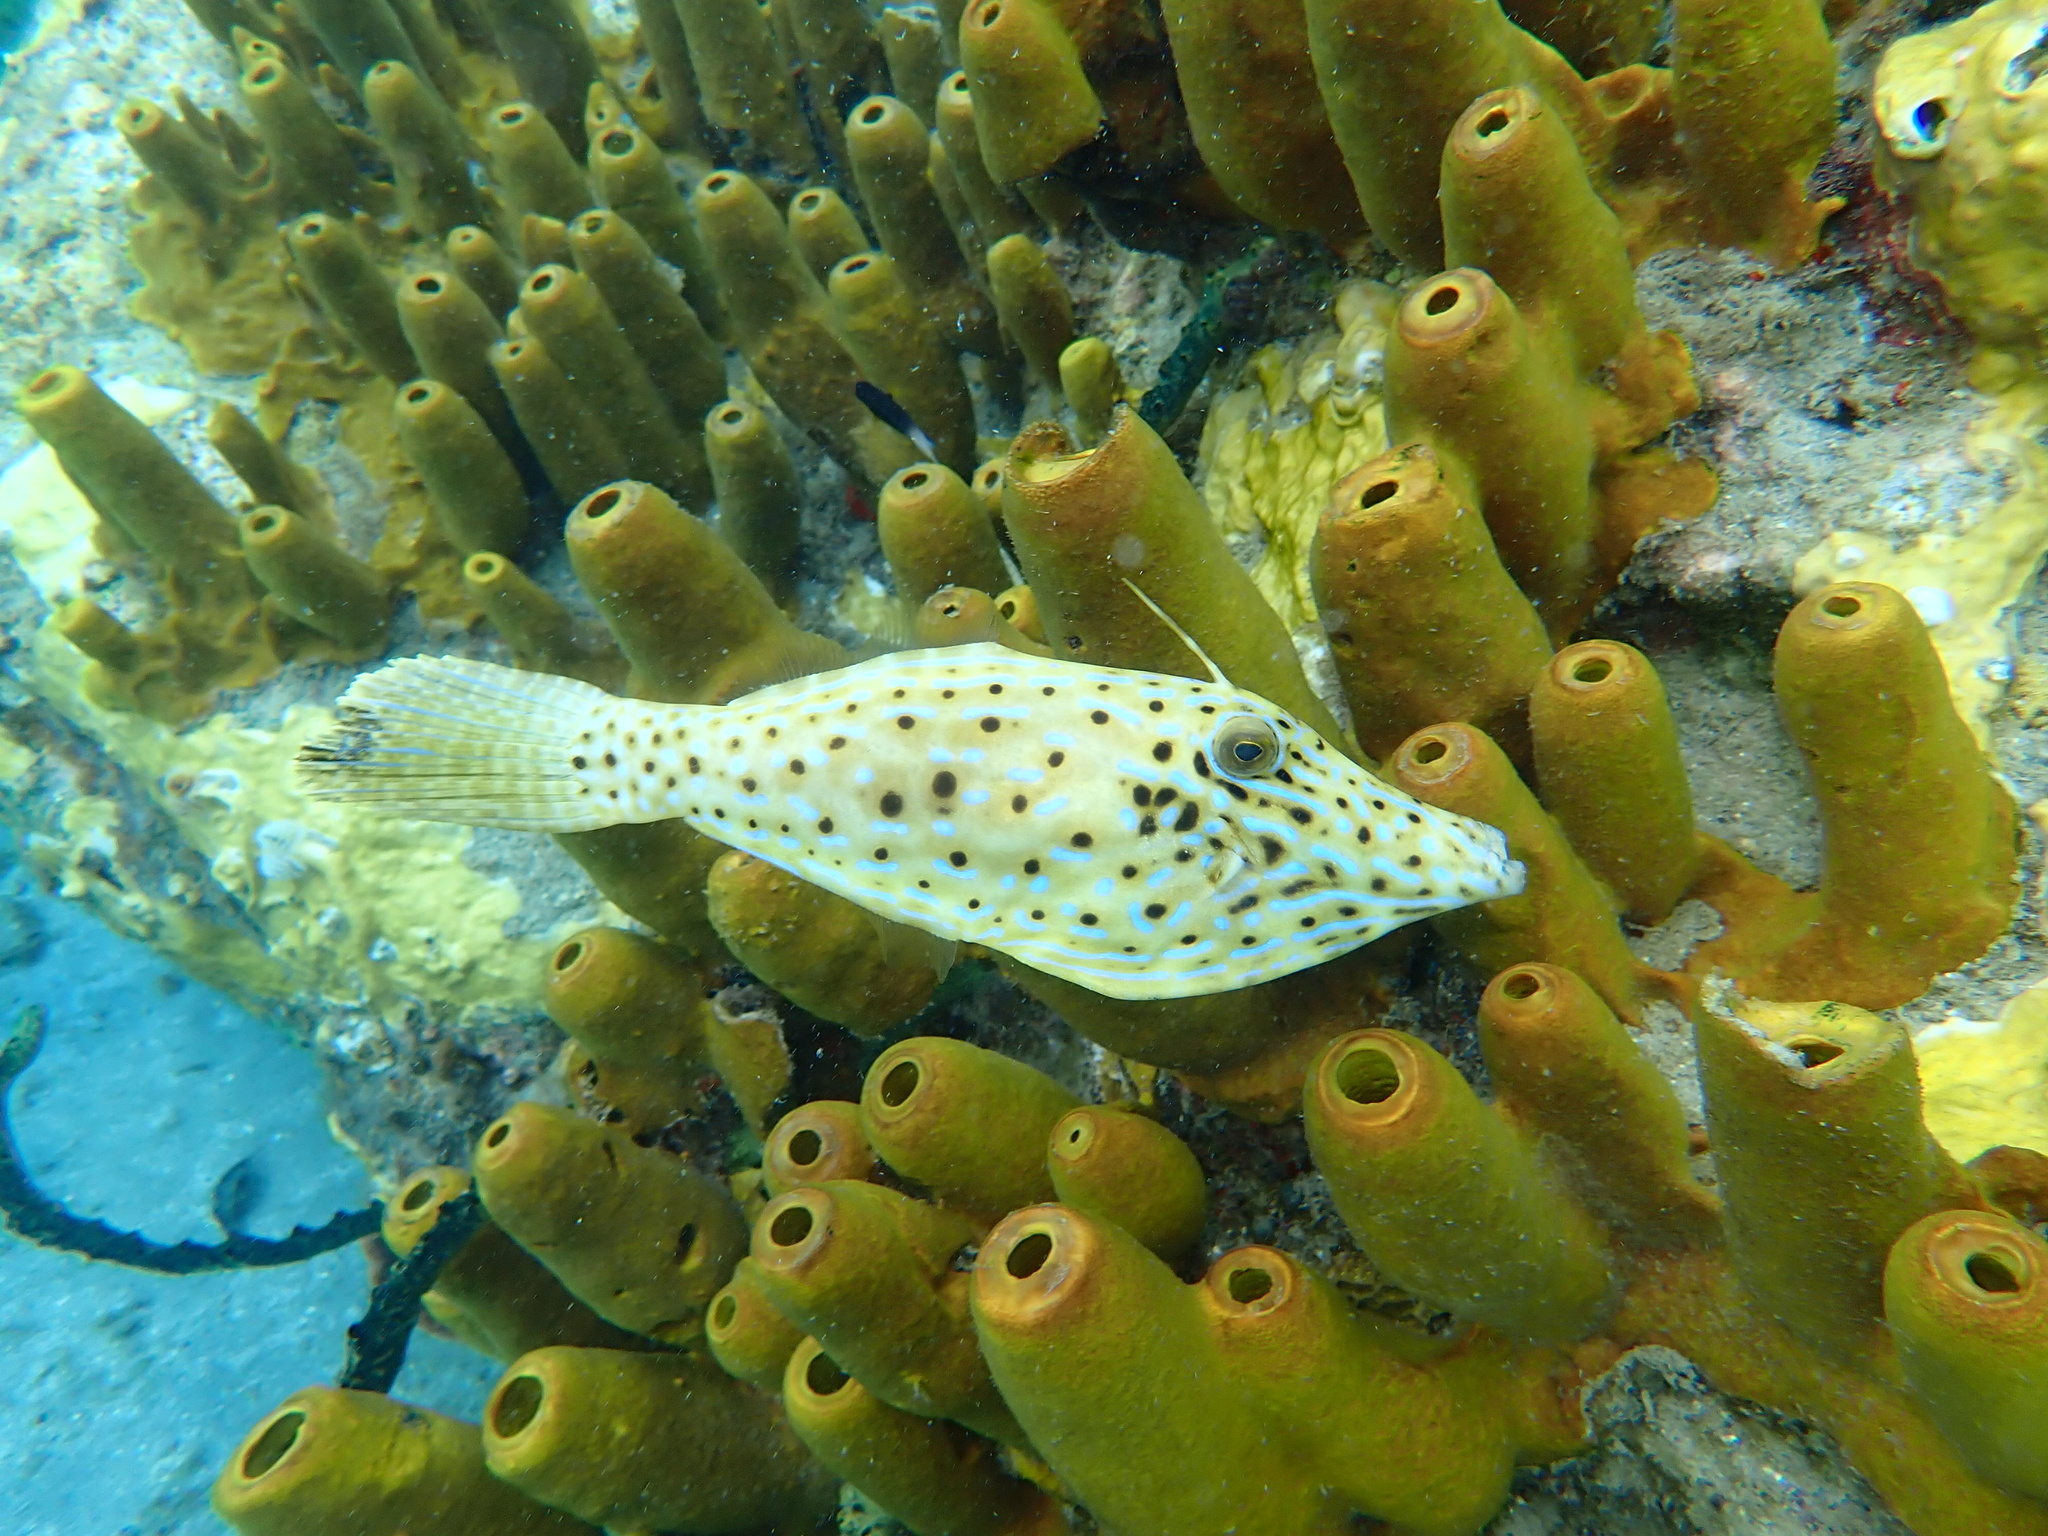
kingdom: Animalia
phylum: Chordata
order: Tetraodontiformes
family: Monacanthidae
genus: Aluterus
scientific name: Aluterus scriptus
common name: Scribbled leatherjacket filefish
